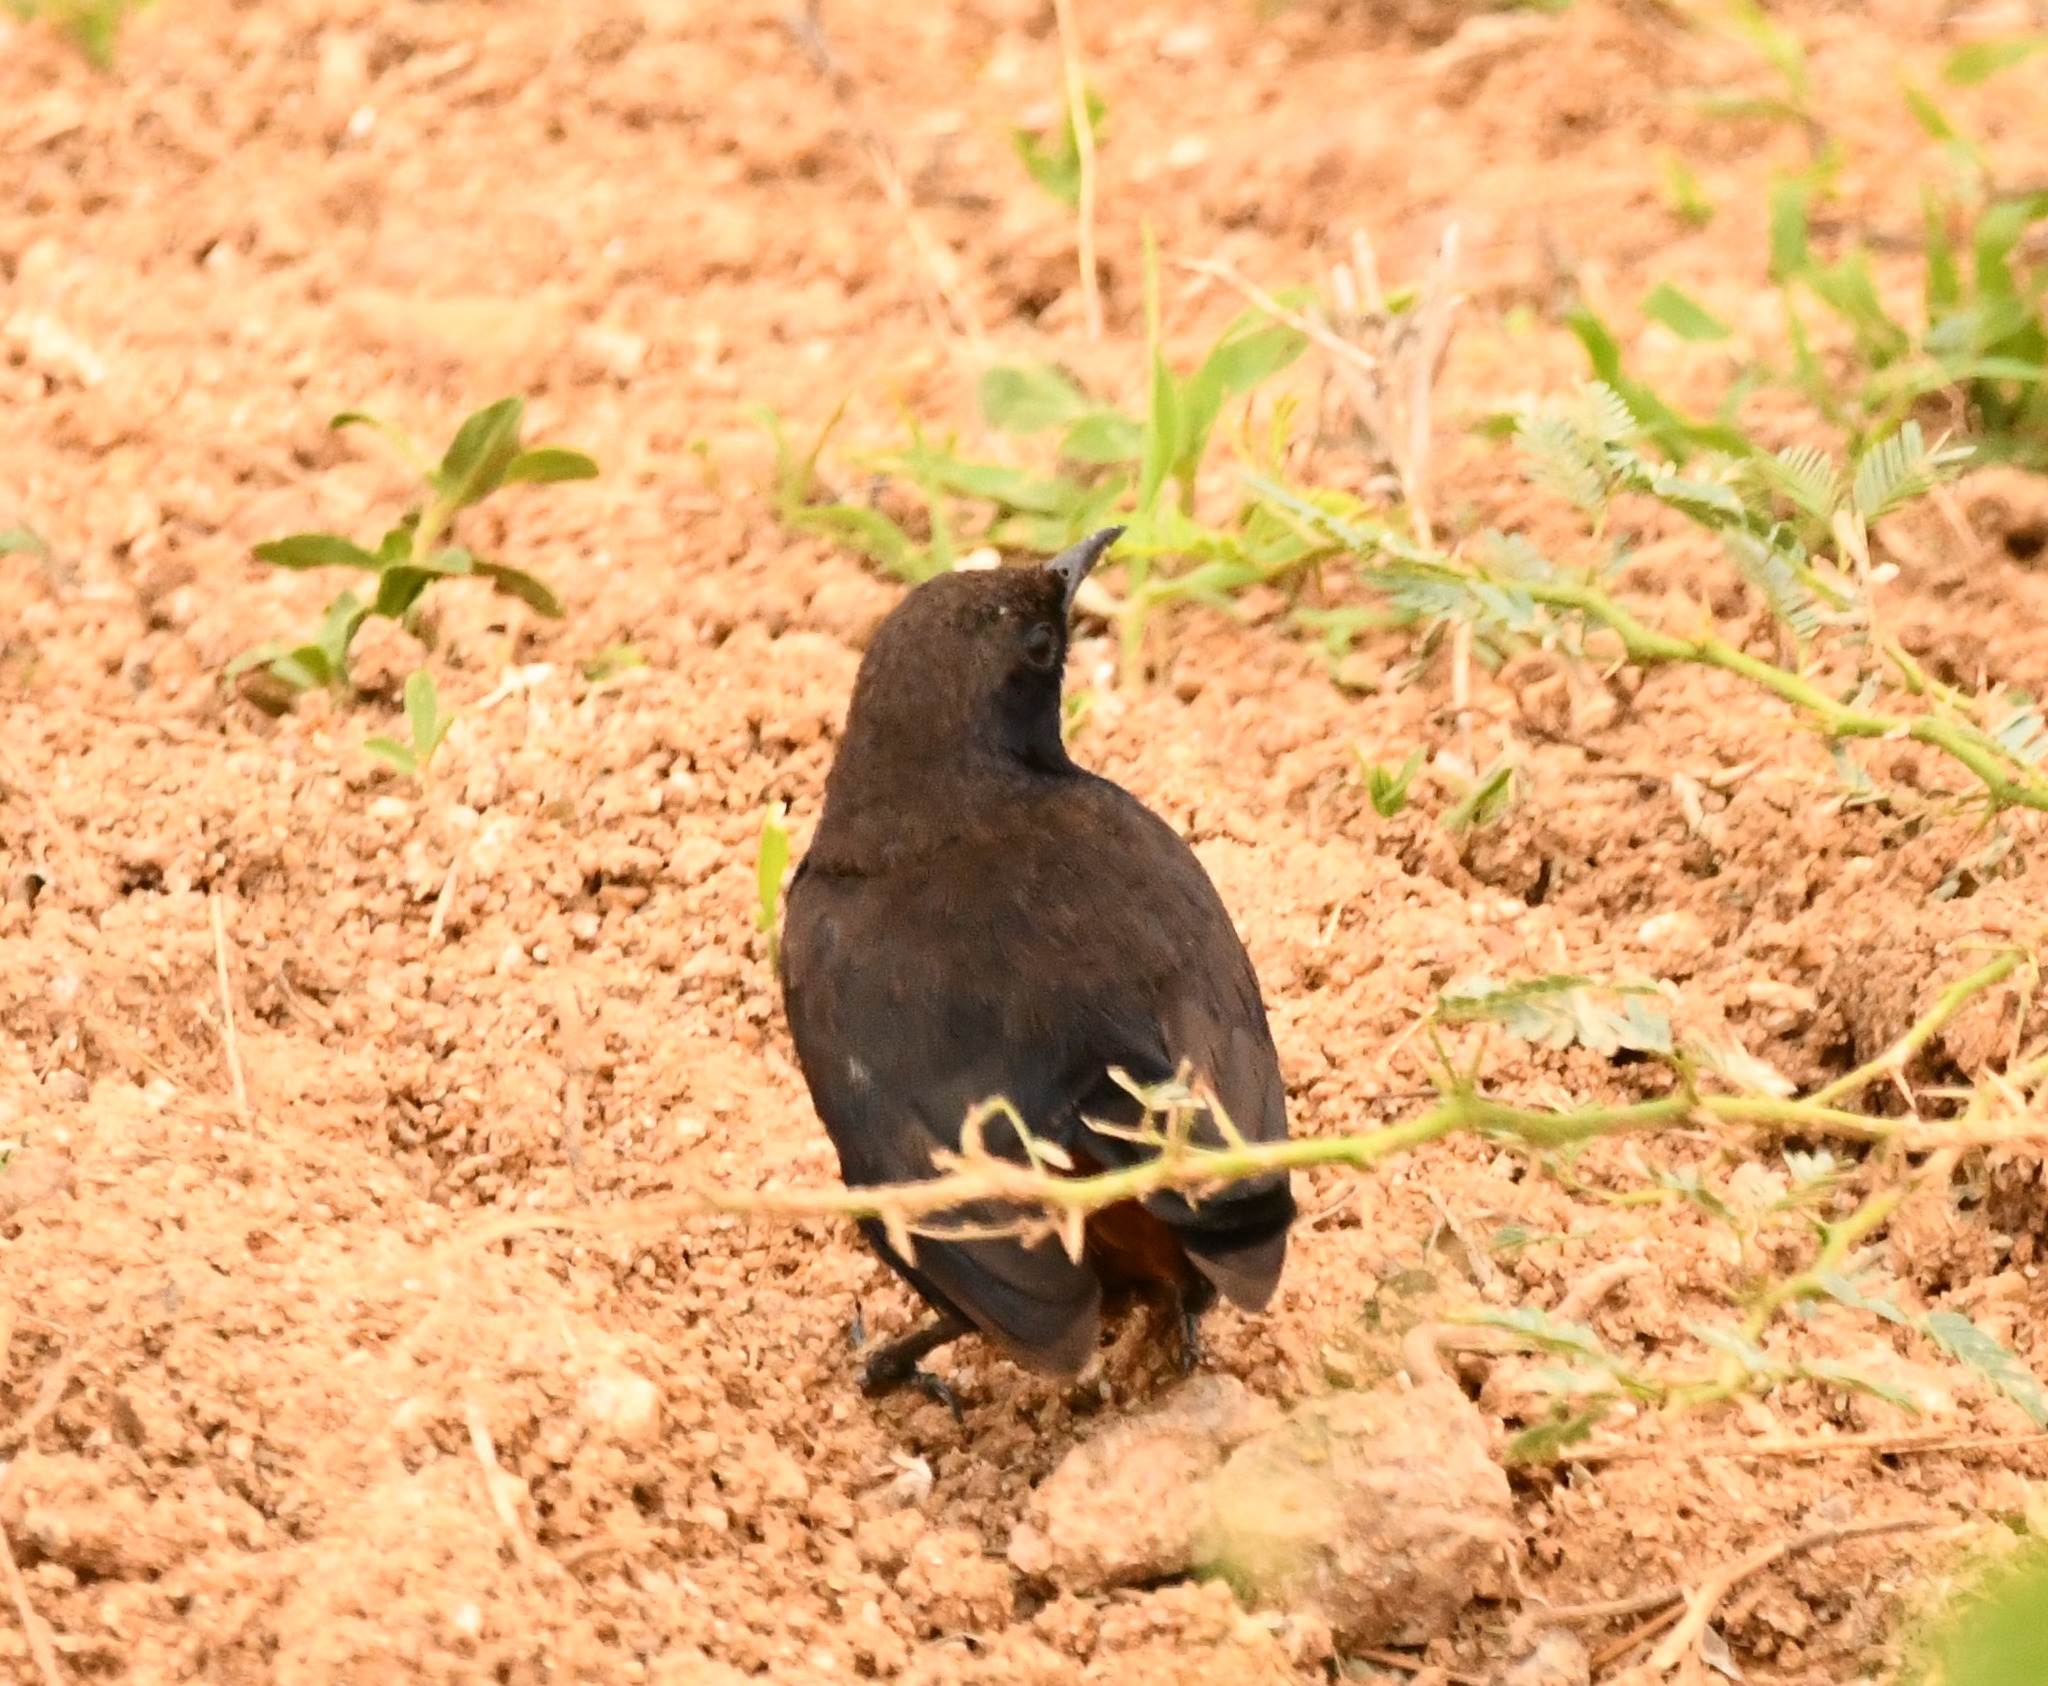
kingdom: Animalia
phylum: Chordata
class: Aves
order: Passeriformes
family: Muscicapidae
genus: Saxicoloides
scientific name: Saxicoloides fulicatus
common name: Indian robin
